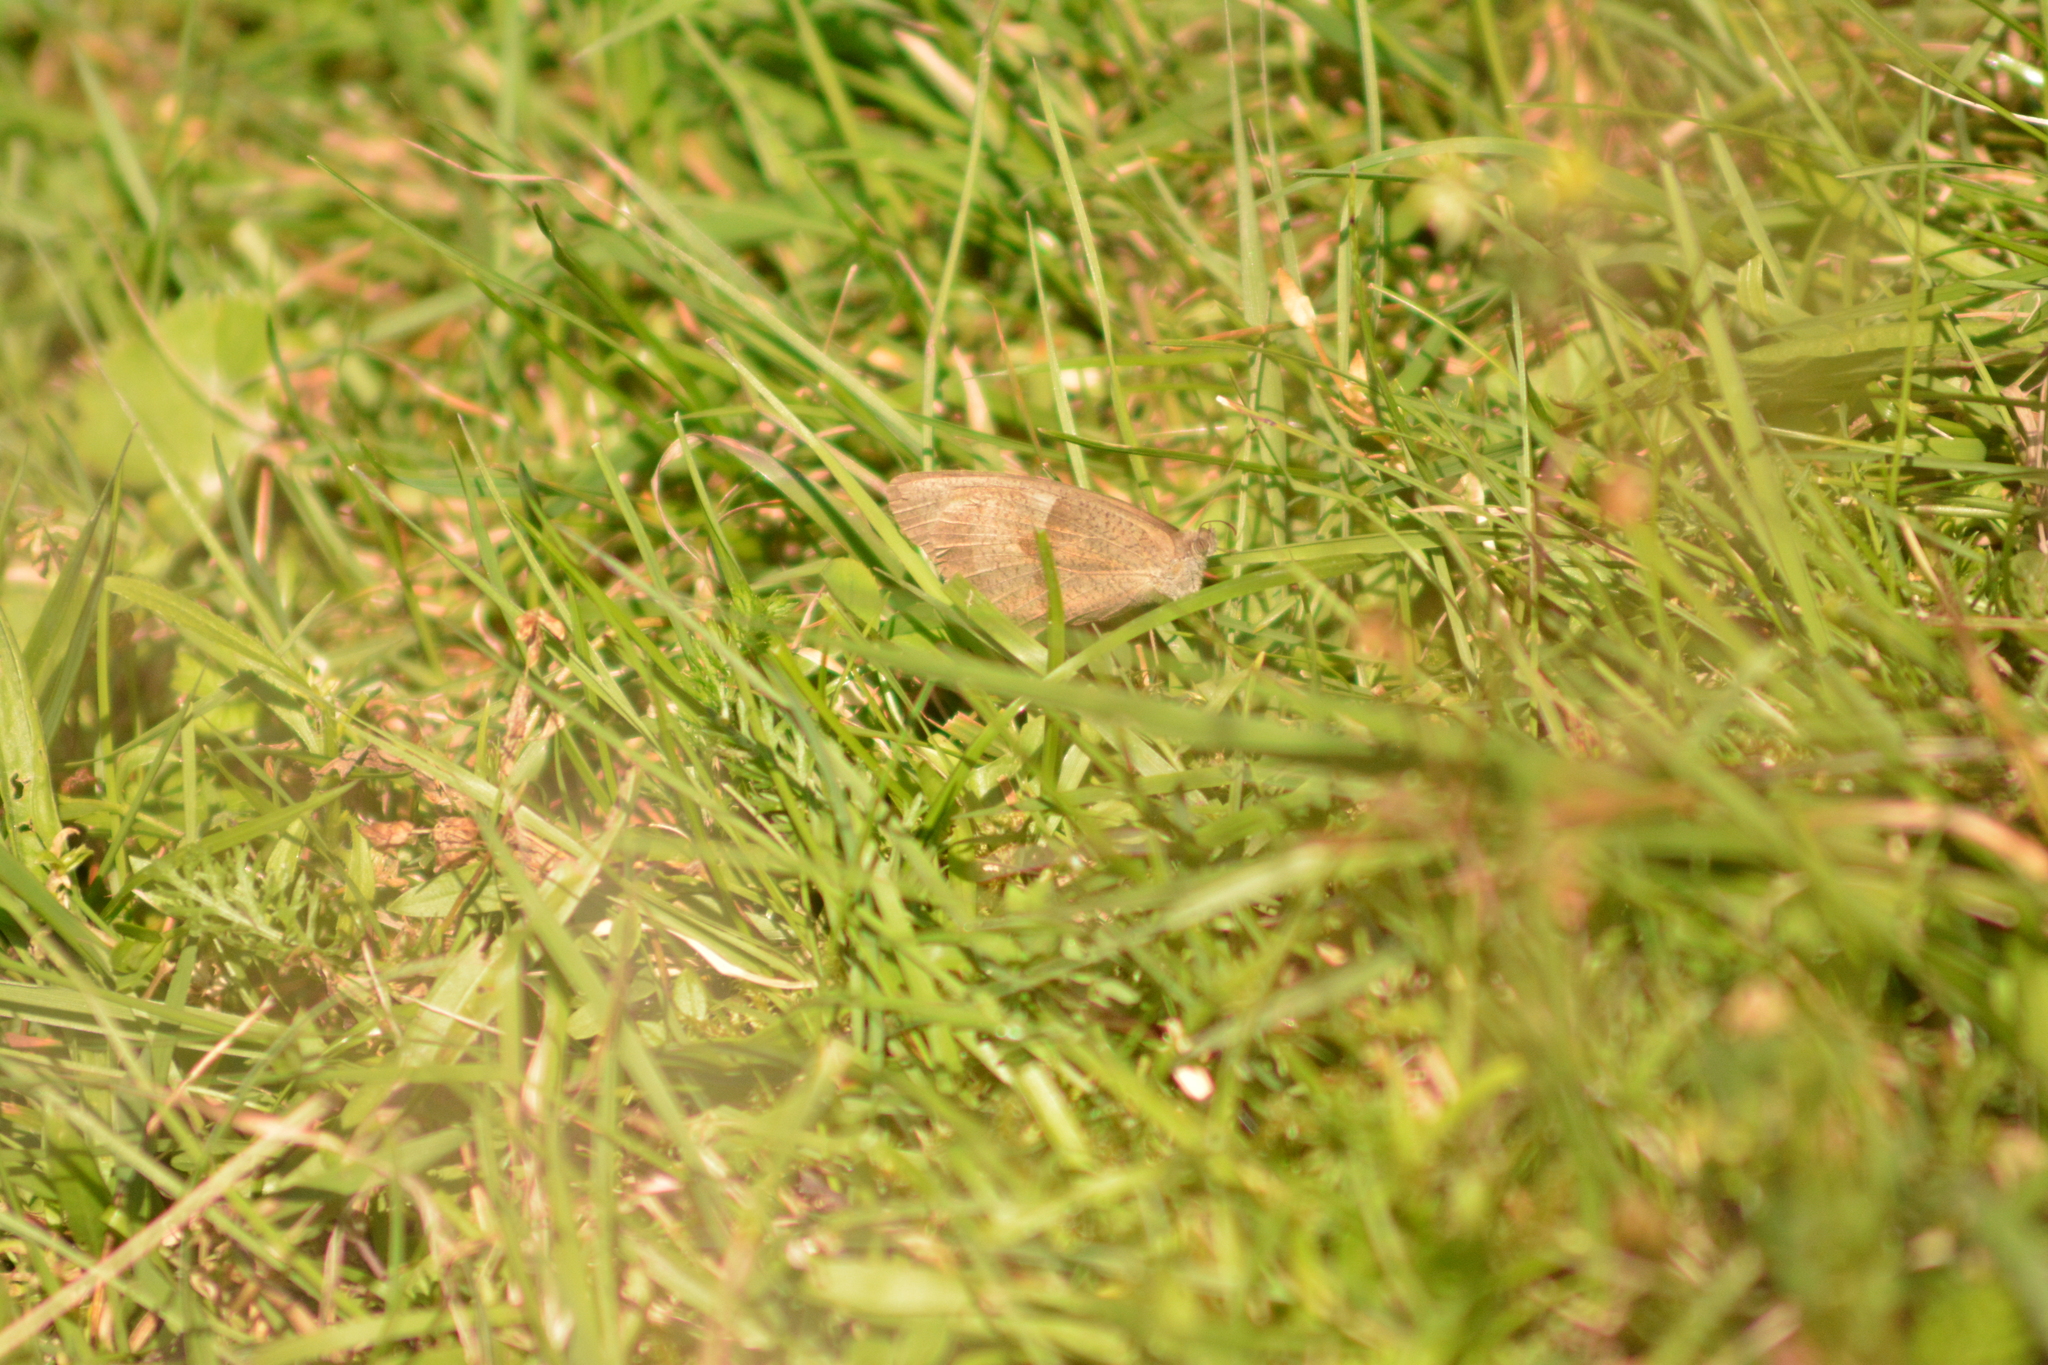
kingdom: Animalia
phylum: Arthropoda
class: Insecta
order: Lepidoptera
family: Nymphalidae
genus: Maniola
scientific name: Maniola jurtina
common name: Meadow brown
